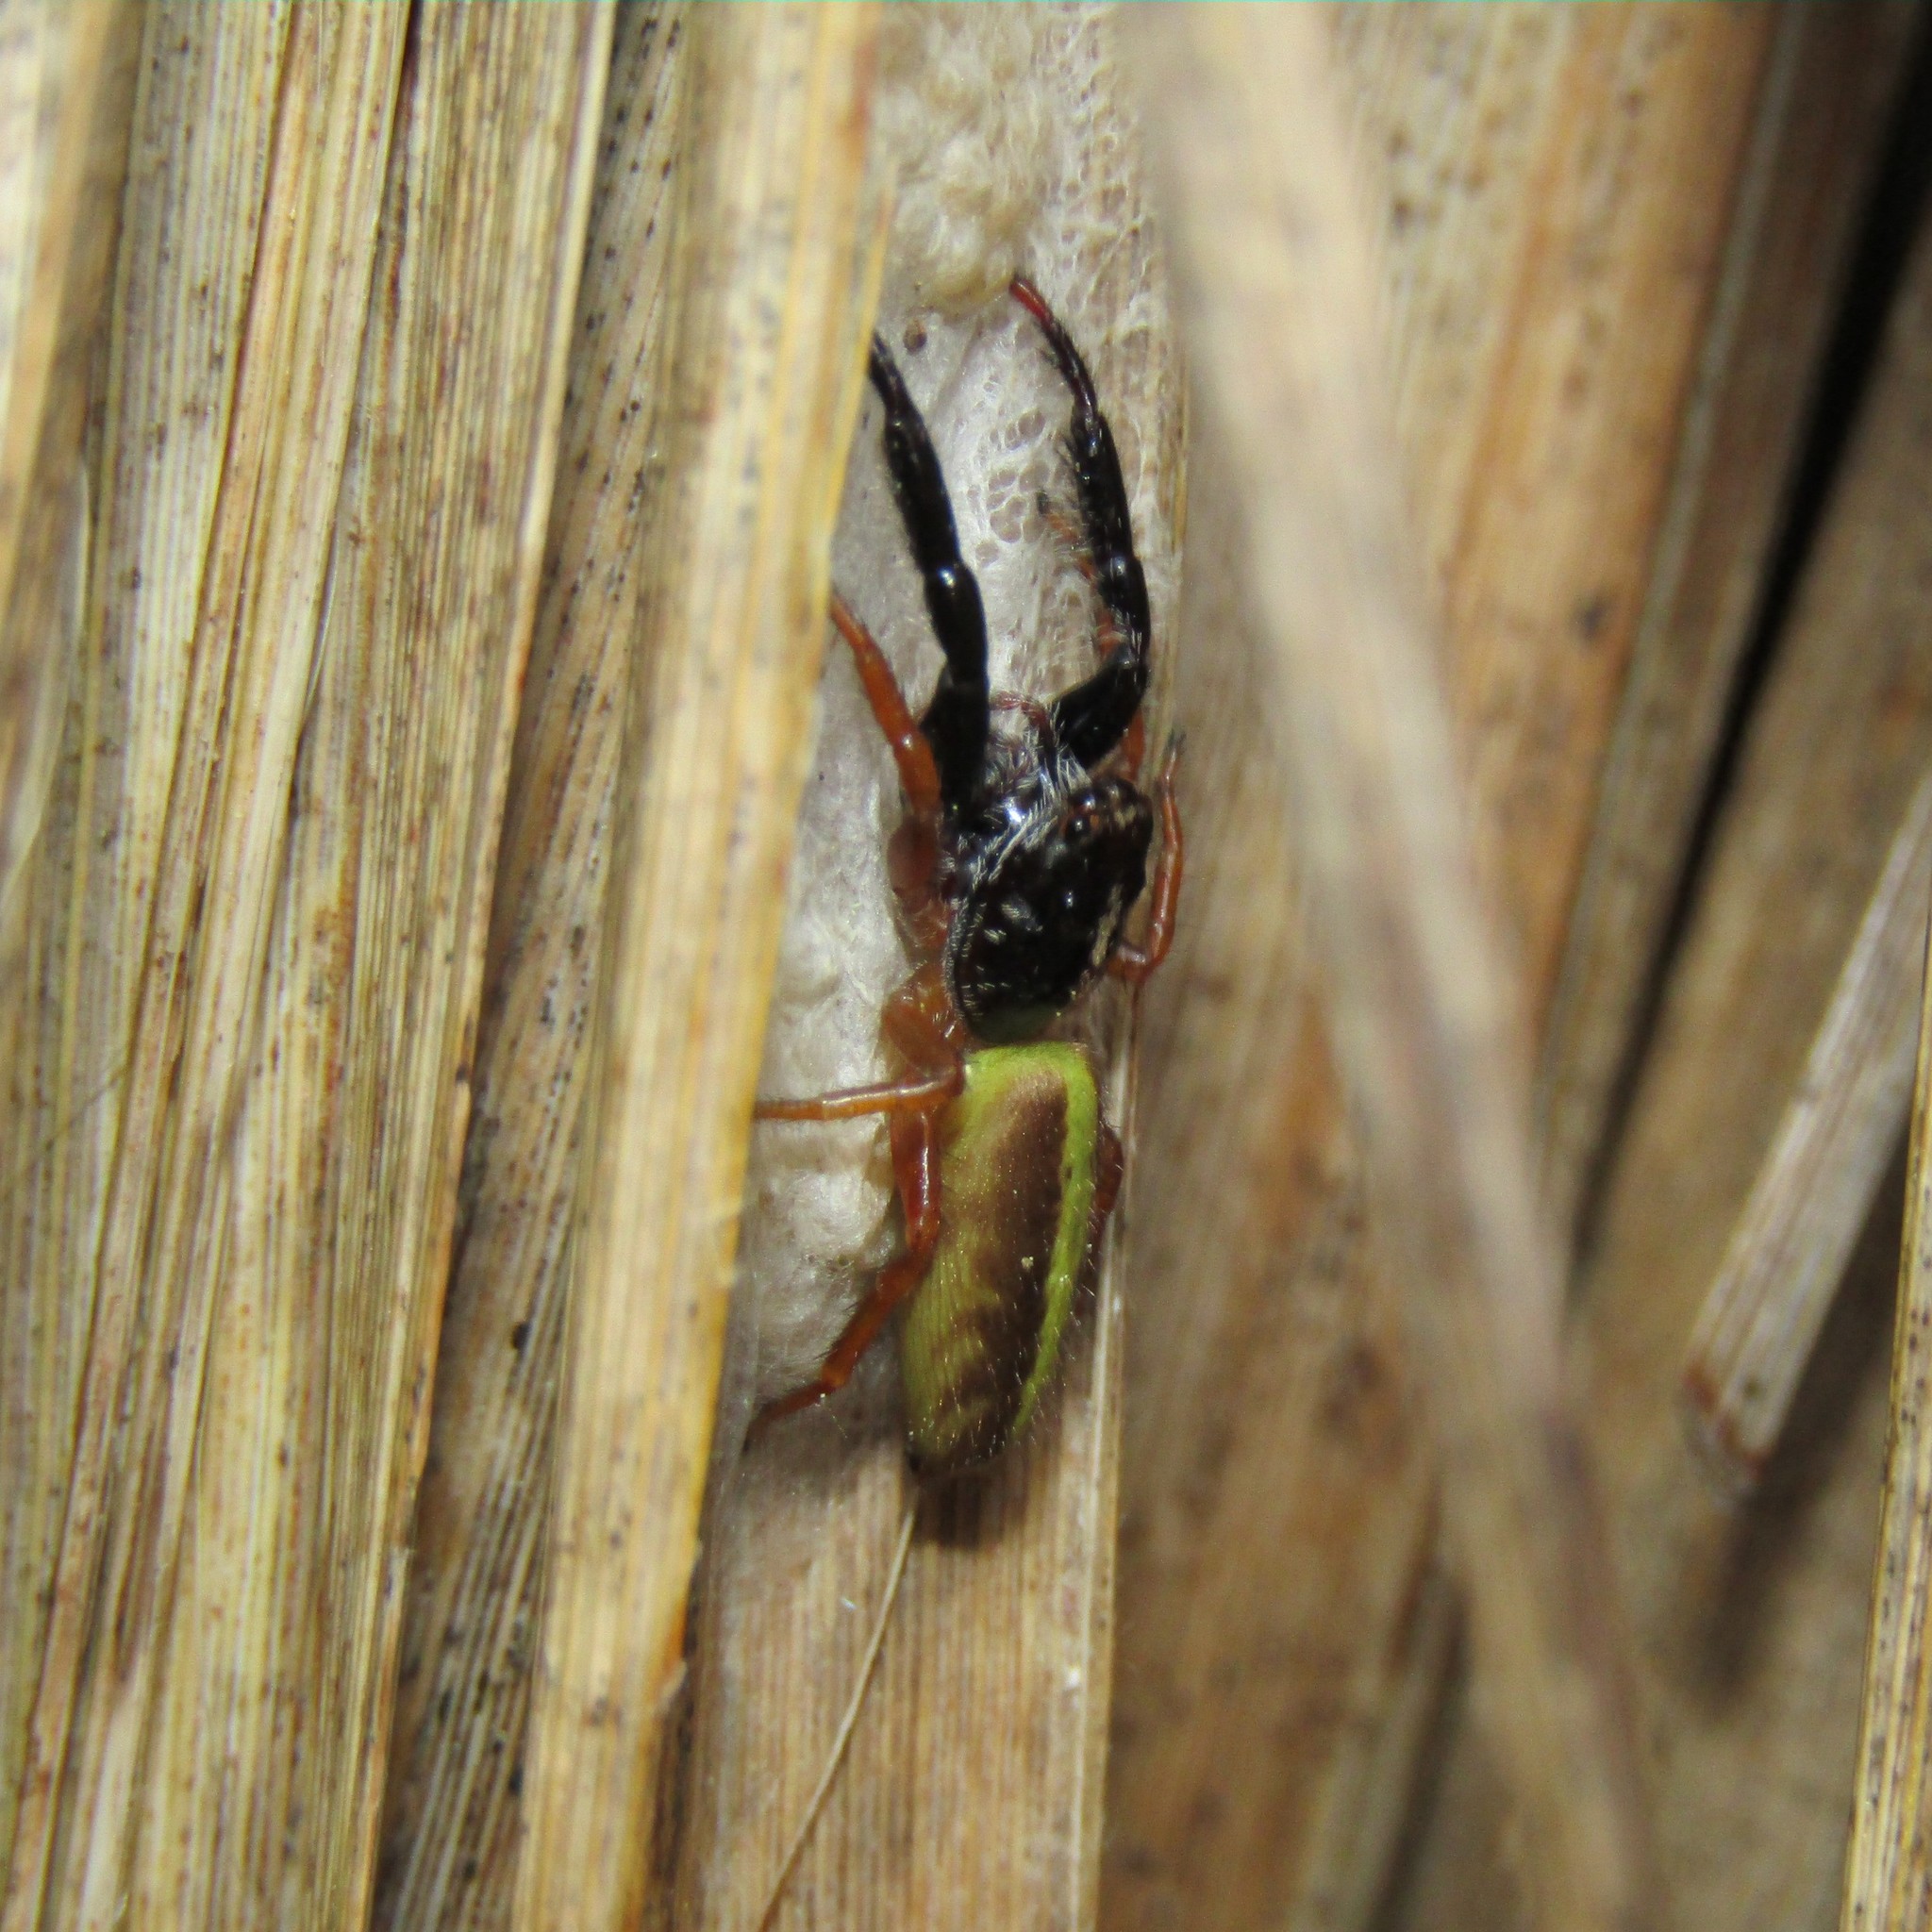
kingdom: Animalia
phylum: Arthropoda
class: Arachnida
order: Araneae
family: Salticidae
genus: Trite
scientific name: Trite planiceps
